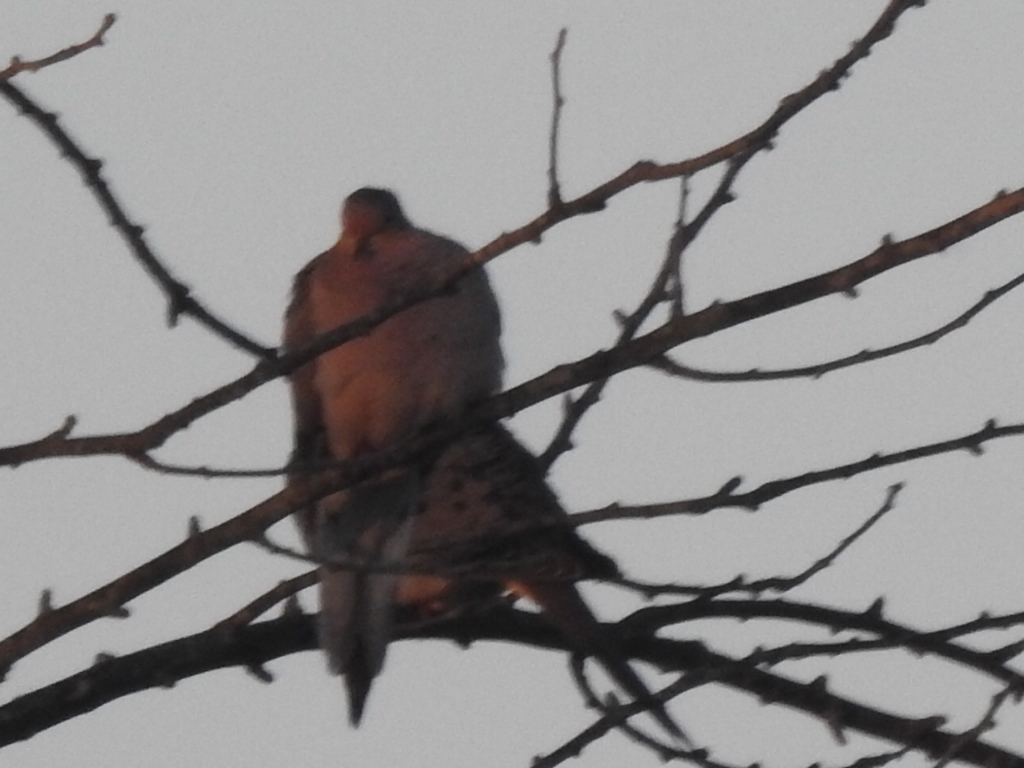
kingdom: Animalia
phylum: Chordata
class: Aves
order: Columbiformes
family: Columbidae
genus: Zenaida
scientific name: Zenaida macroura
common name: Mourning dove
